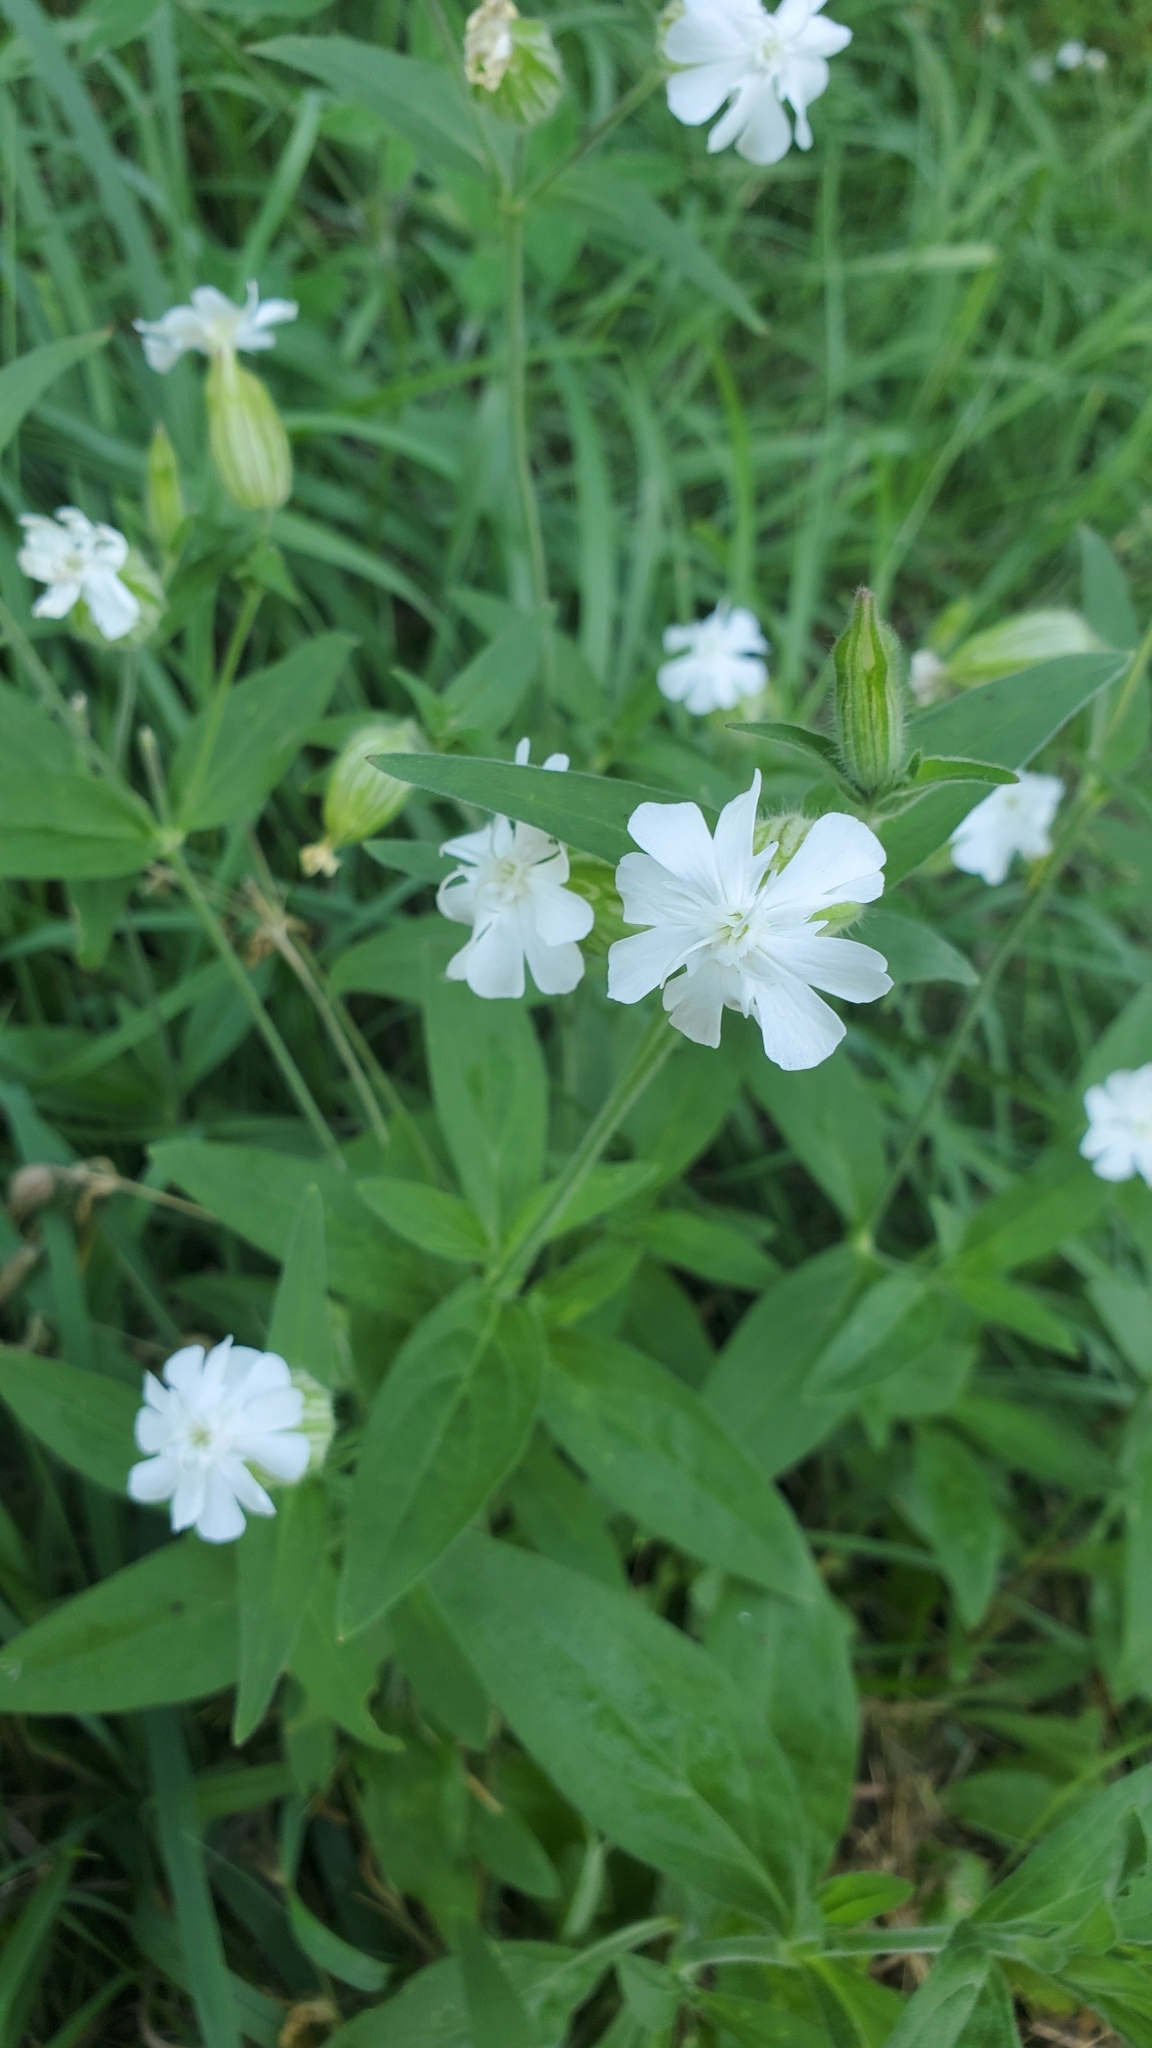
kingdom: Plantae
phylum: Tracheophyta
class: Magnoliopsida
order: Caryophyllales
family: Caryophyllaceae
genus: Silene
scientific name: Silene latifolia
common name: White campion
